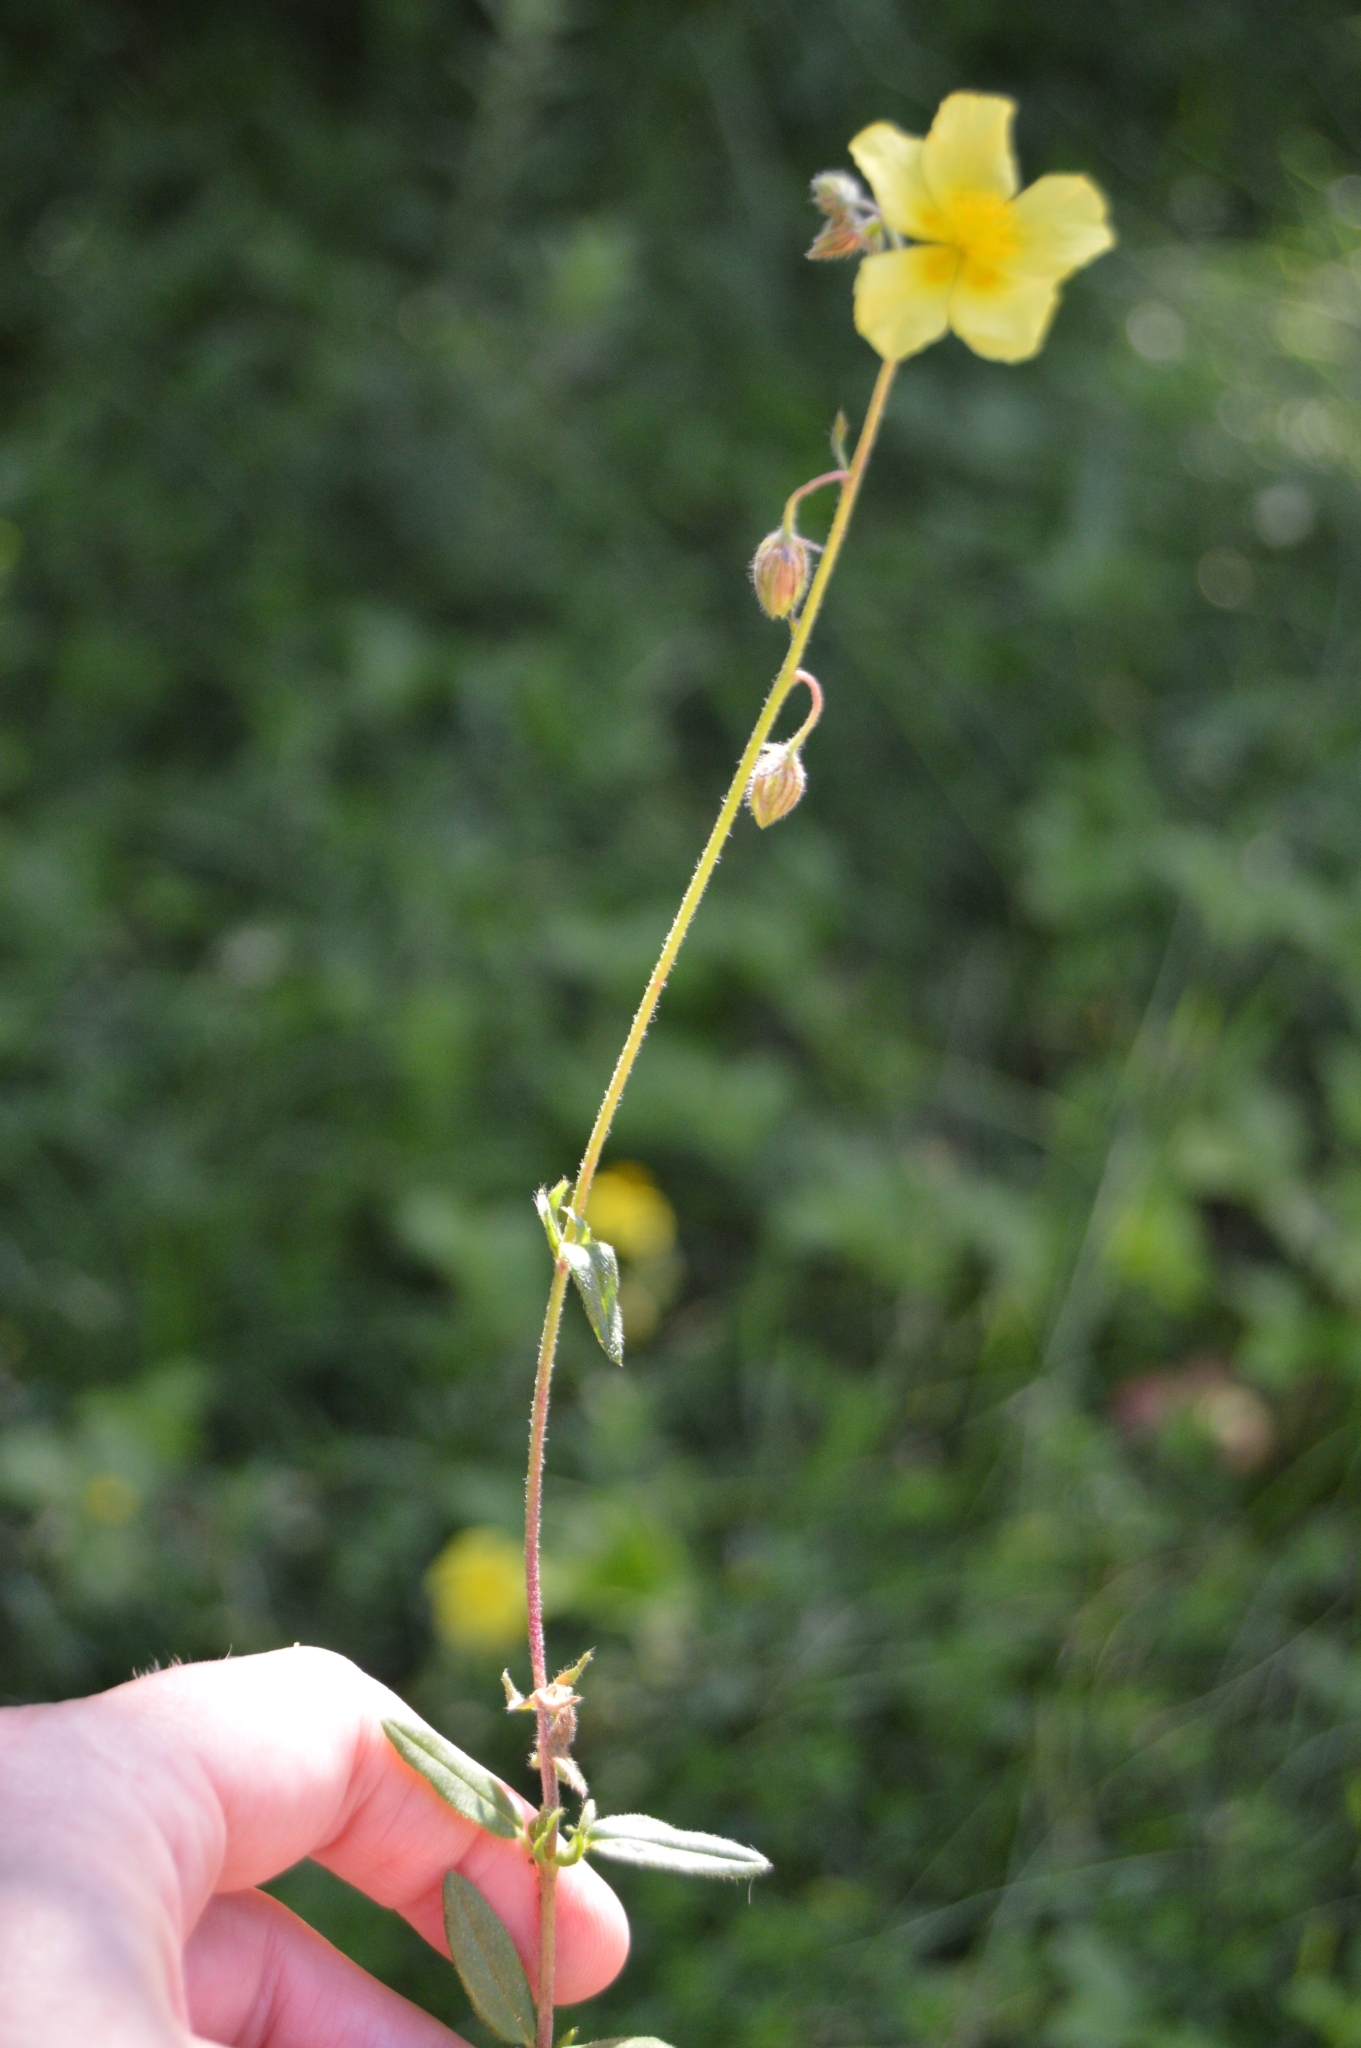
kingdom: Plantae
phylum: Tracheophyta
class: Magnoliopsida
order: Malvales
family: Cistaceae
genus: Helianthemum
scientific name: Helianthemum nummularium
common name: Common rock-rose
